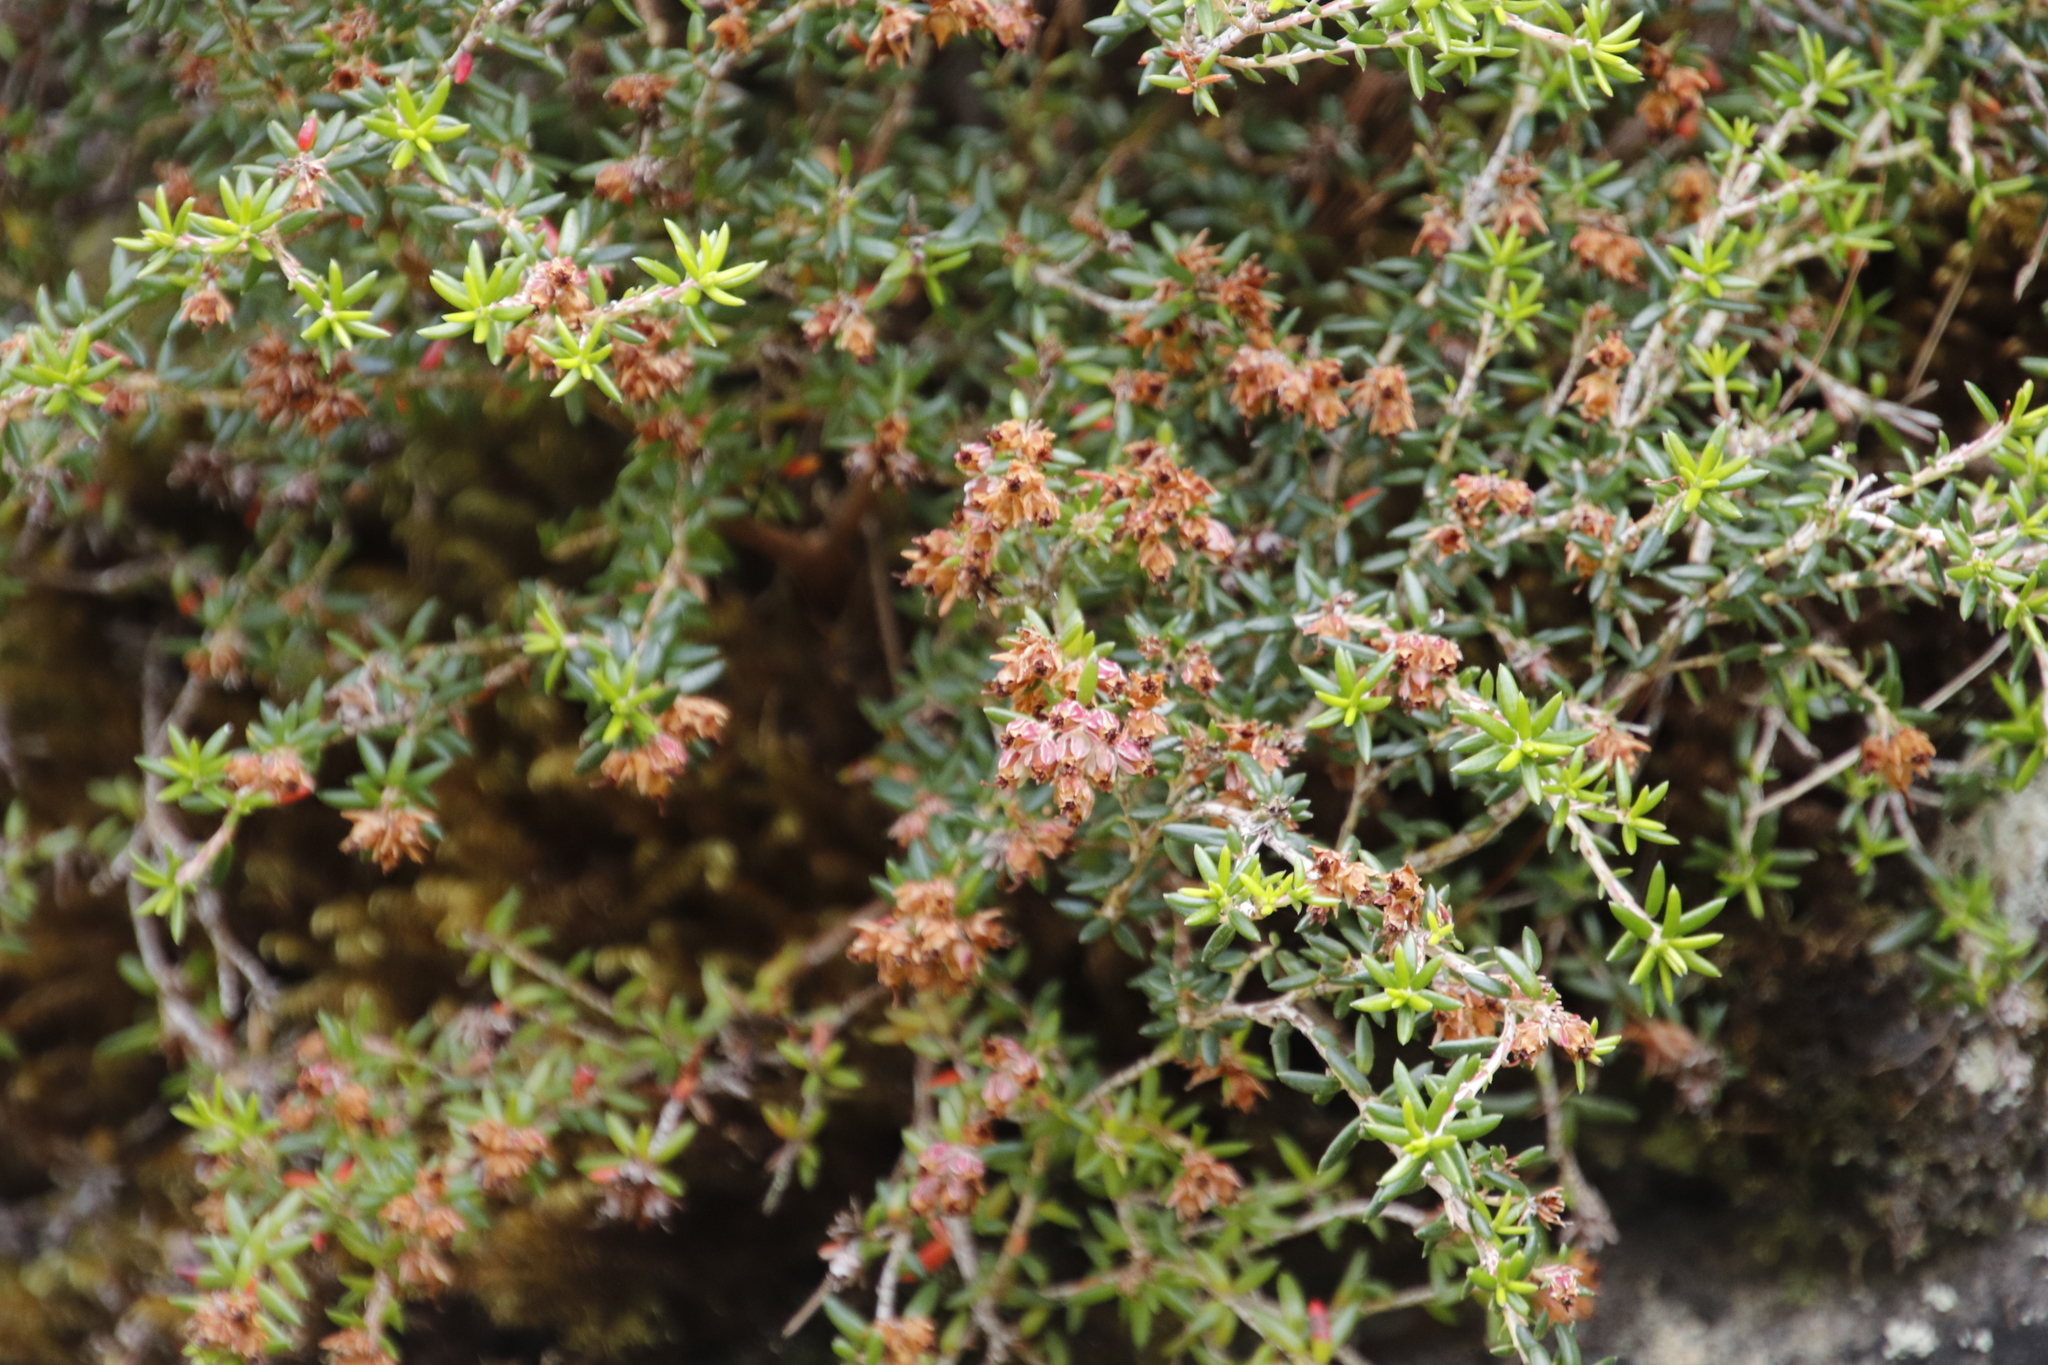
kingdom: Plantae
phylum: Tracheophyta
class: Magnoliopsida
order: Ericales
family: Ericaceae
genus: Erica
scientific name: Erica petiolaris
